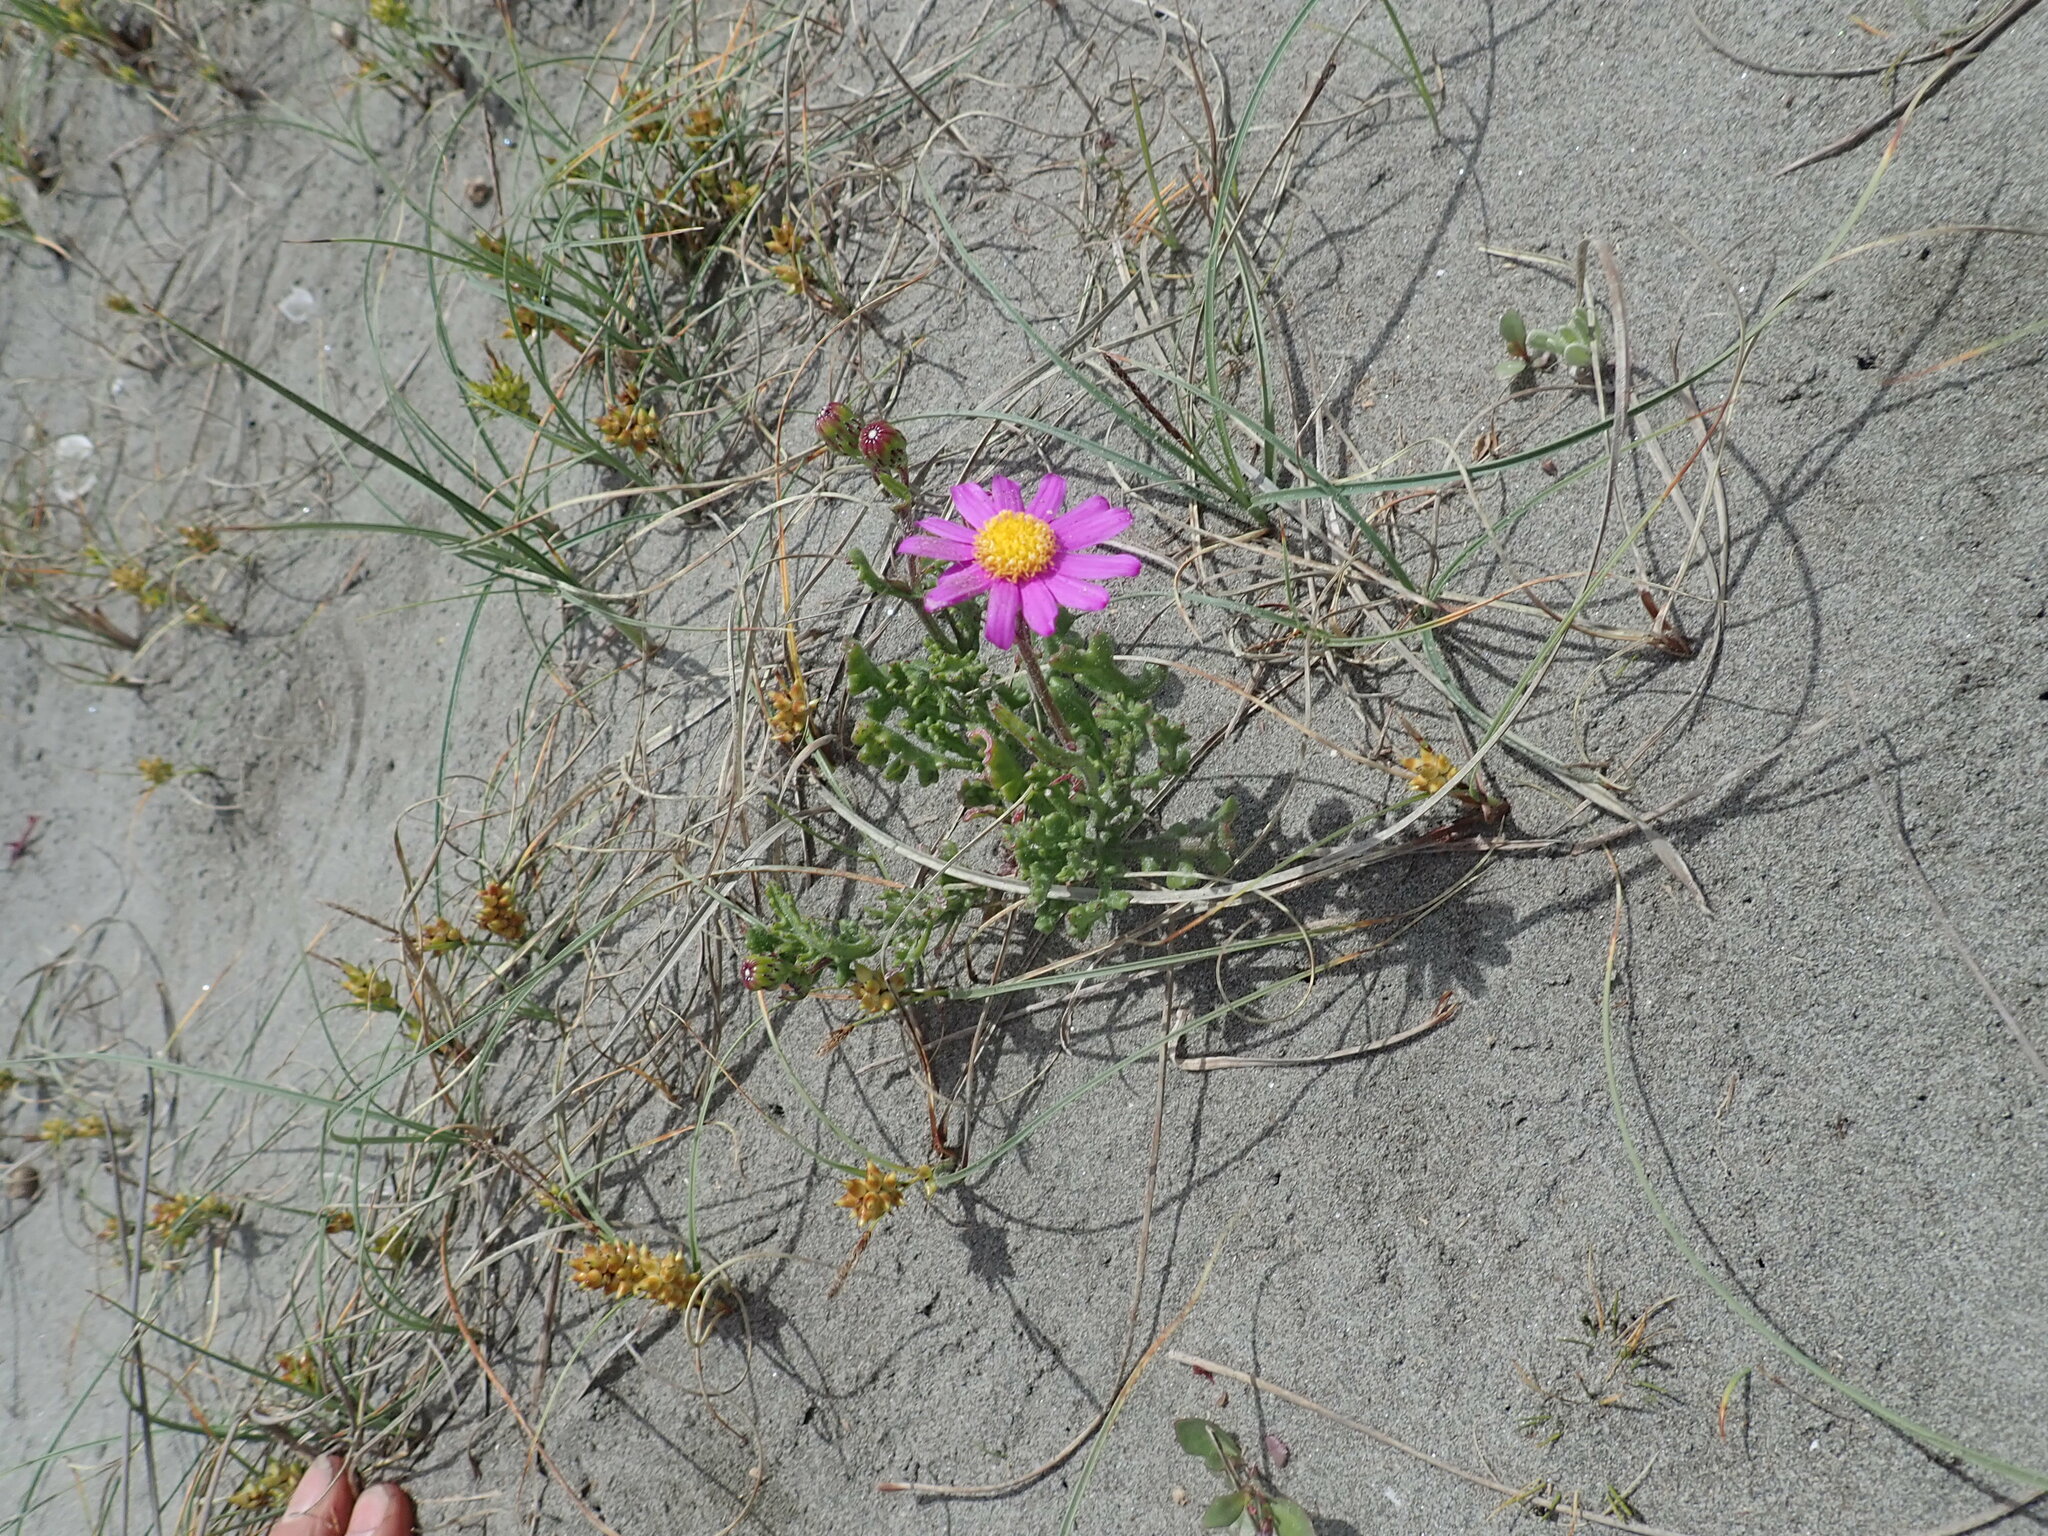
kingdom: Plantae
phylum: Tracheophyta
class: Magnoliopsida
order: Asterales
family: Asteraceae
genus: Senecio
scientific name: Senecio elegans
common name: Purple groundsel
